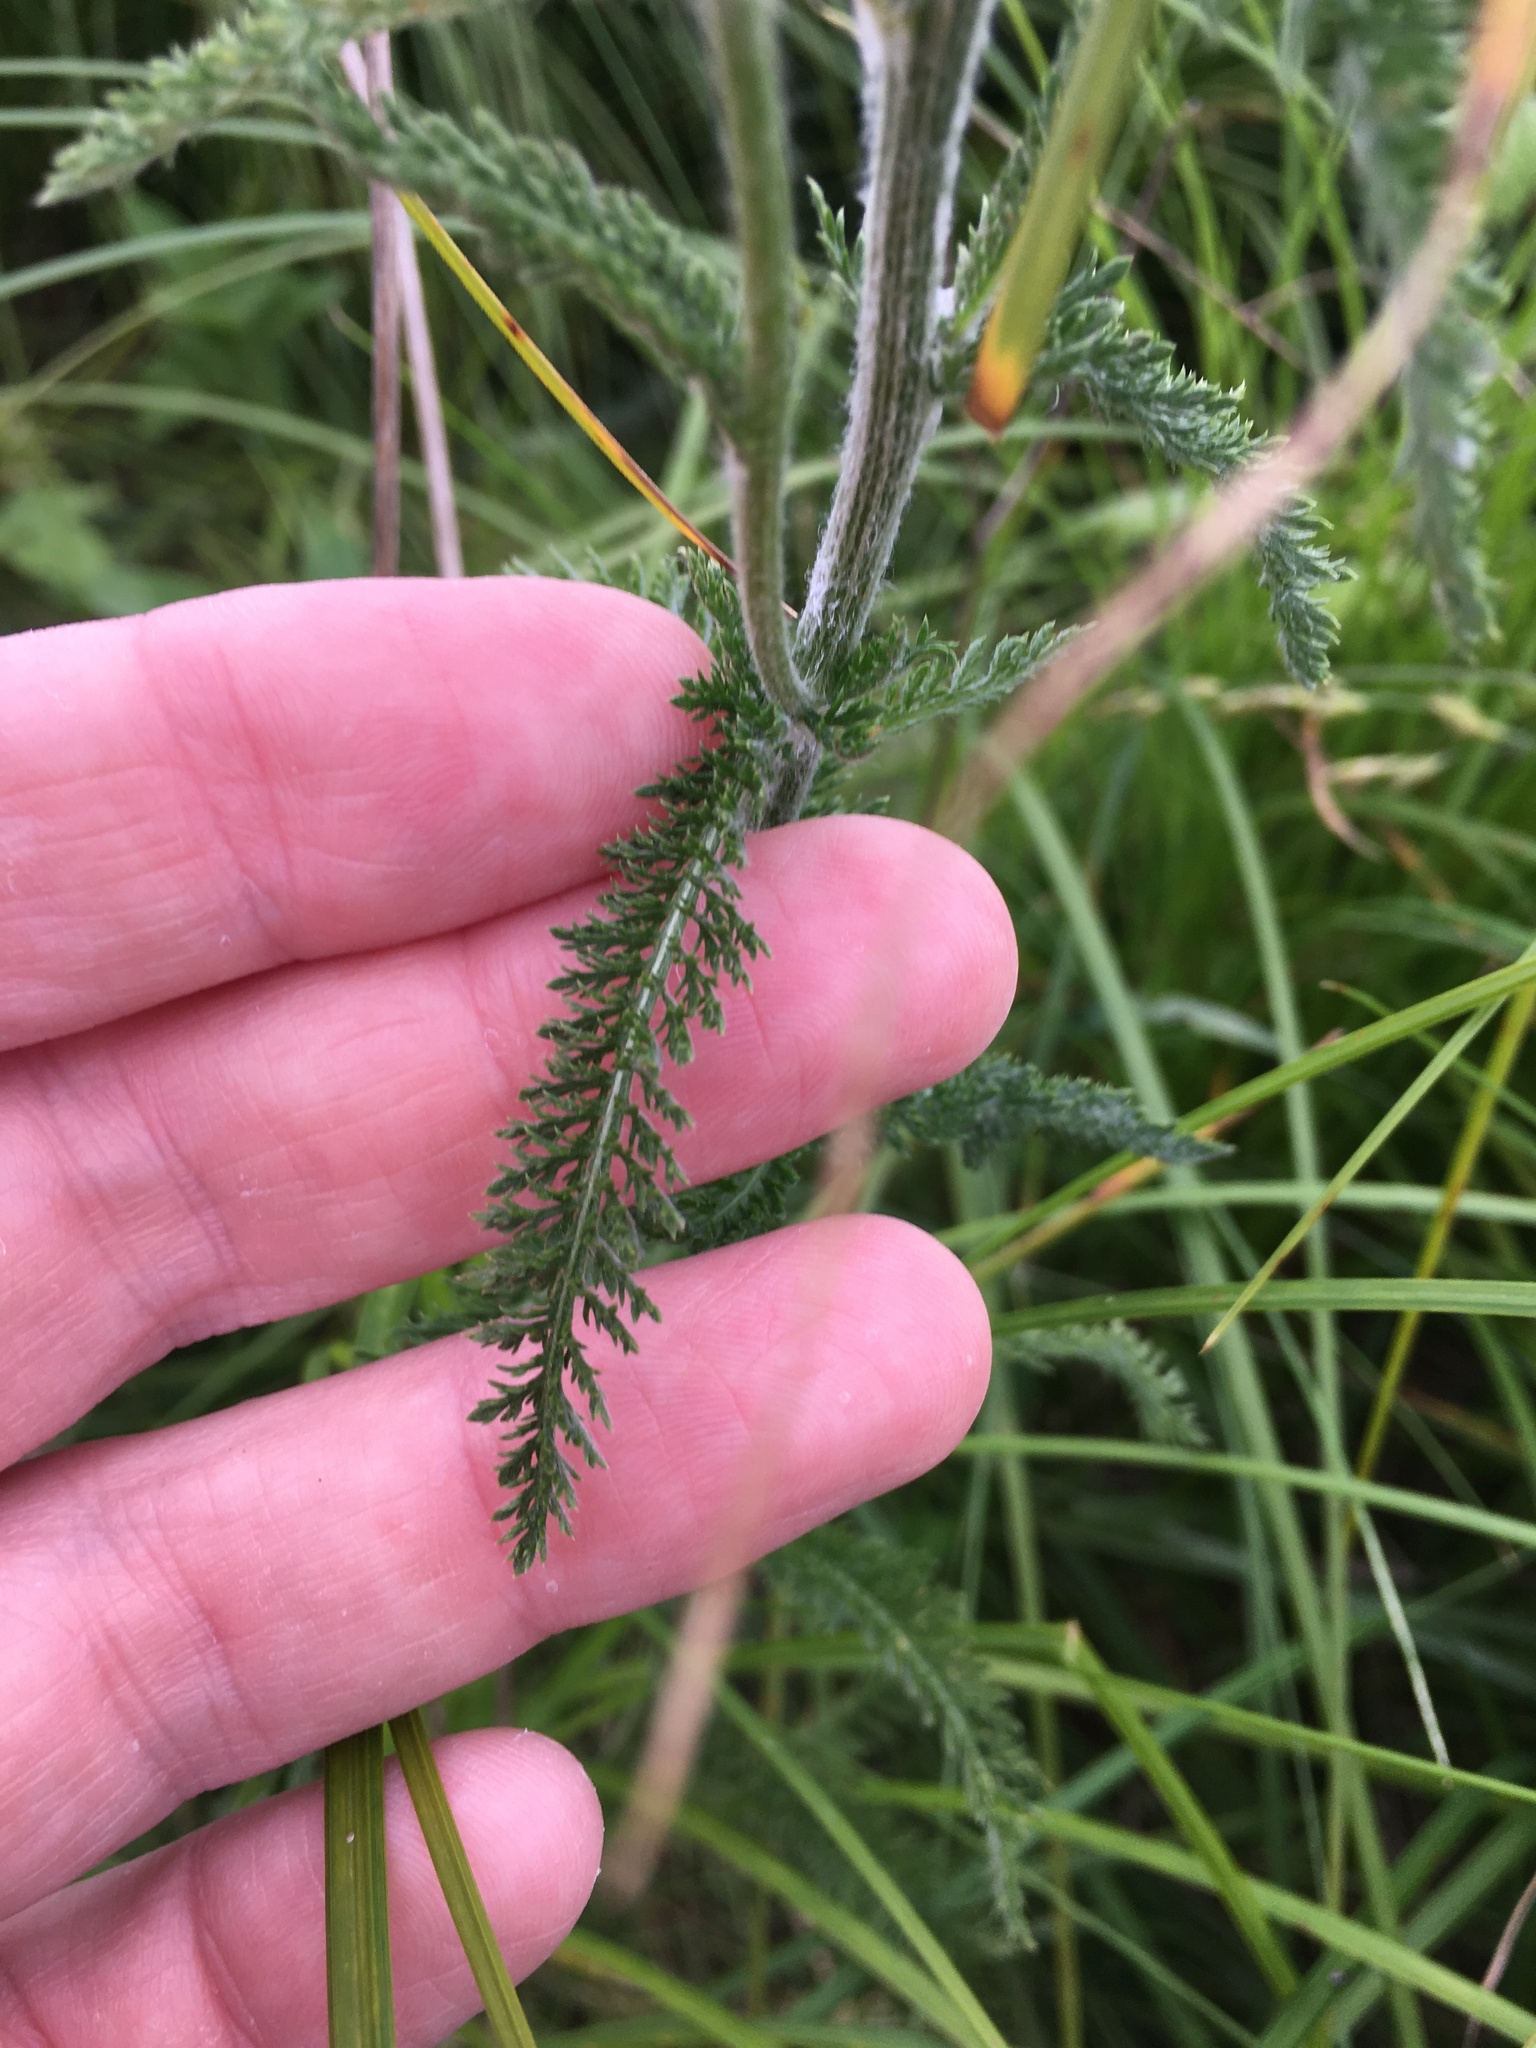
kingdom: Plantae
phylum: Tracheophyta
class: Magnoliopsida
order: Asterales
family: Asteraceae
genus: Achillea
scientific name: Achillea millefolium
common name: Yarrow
